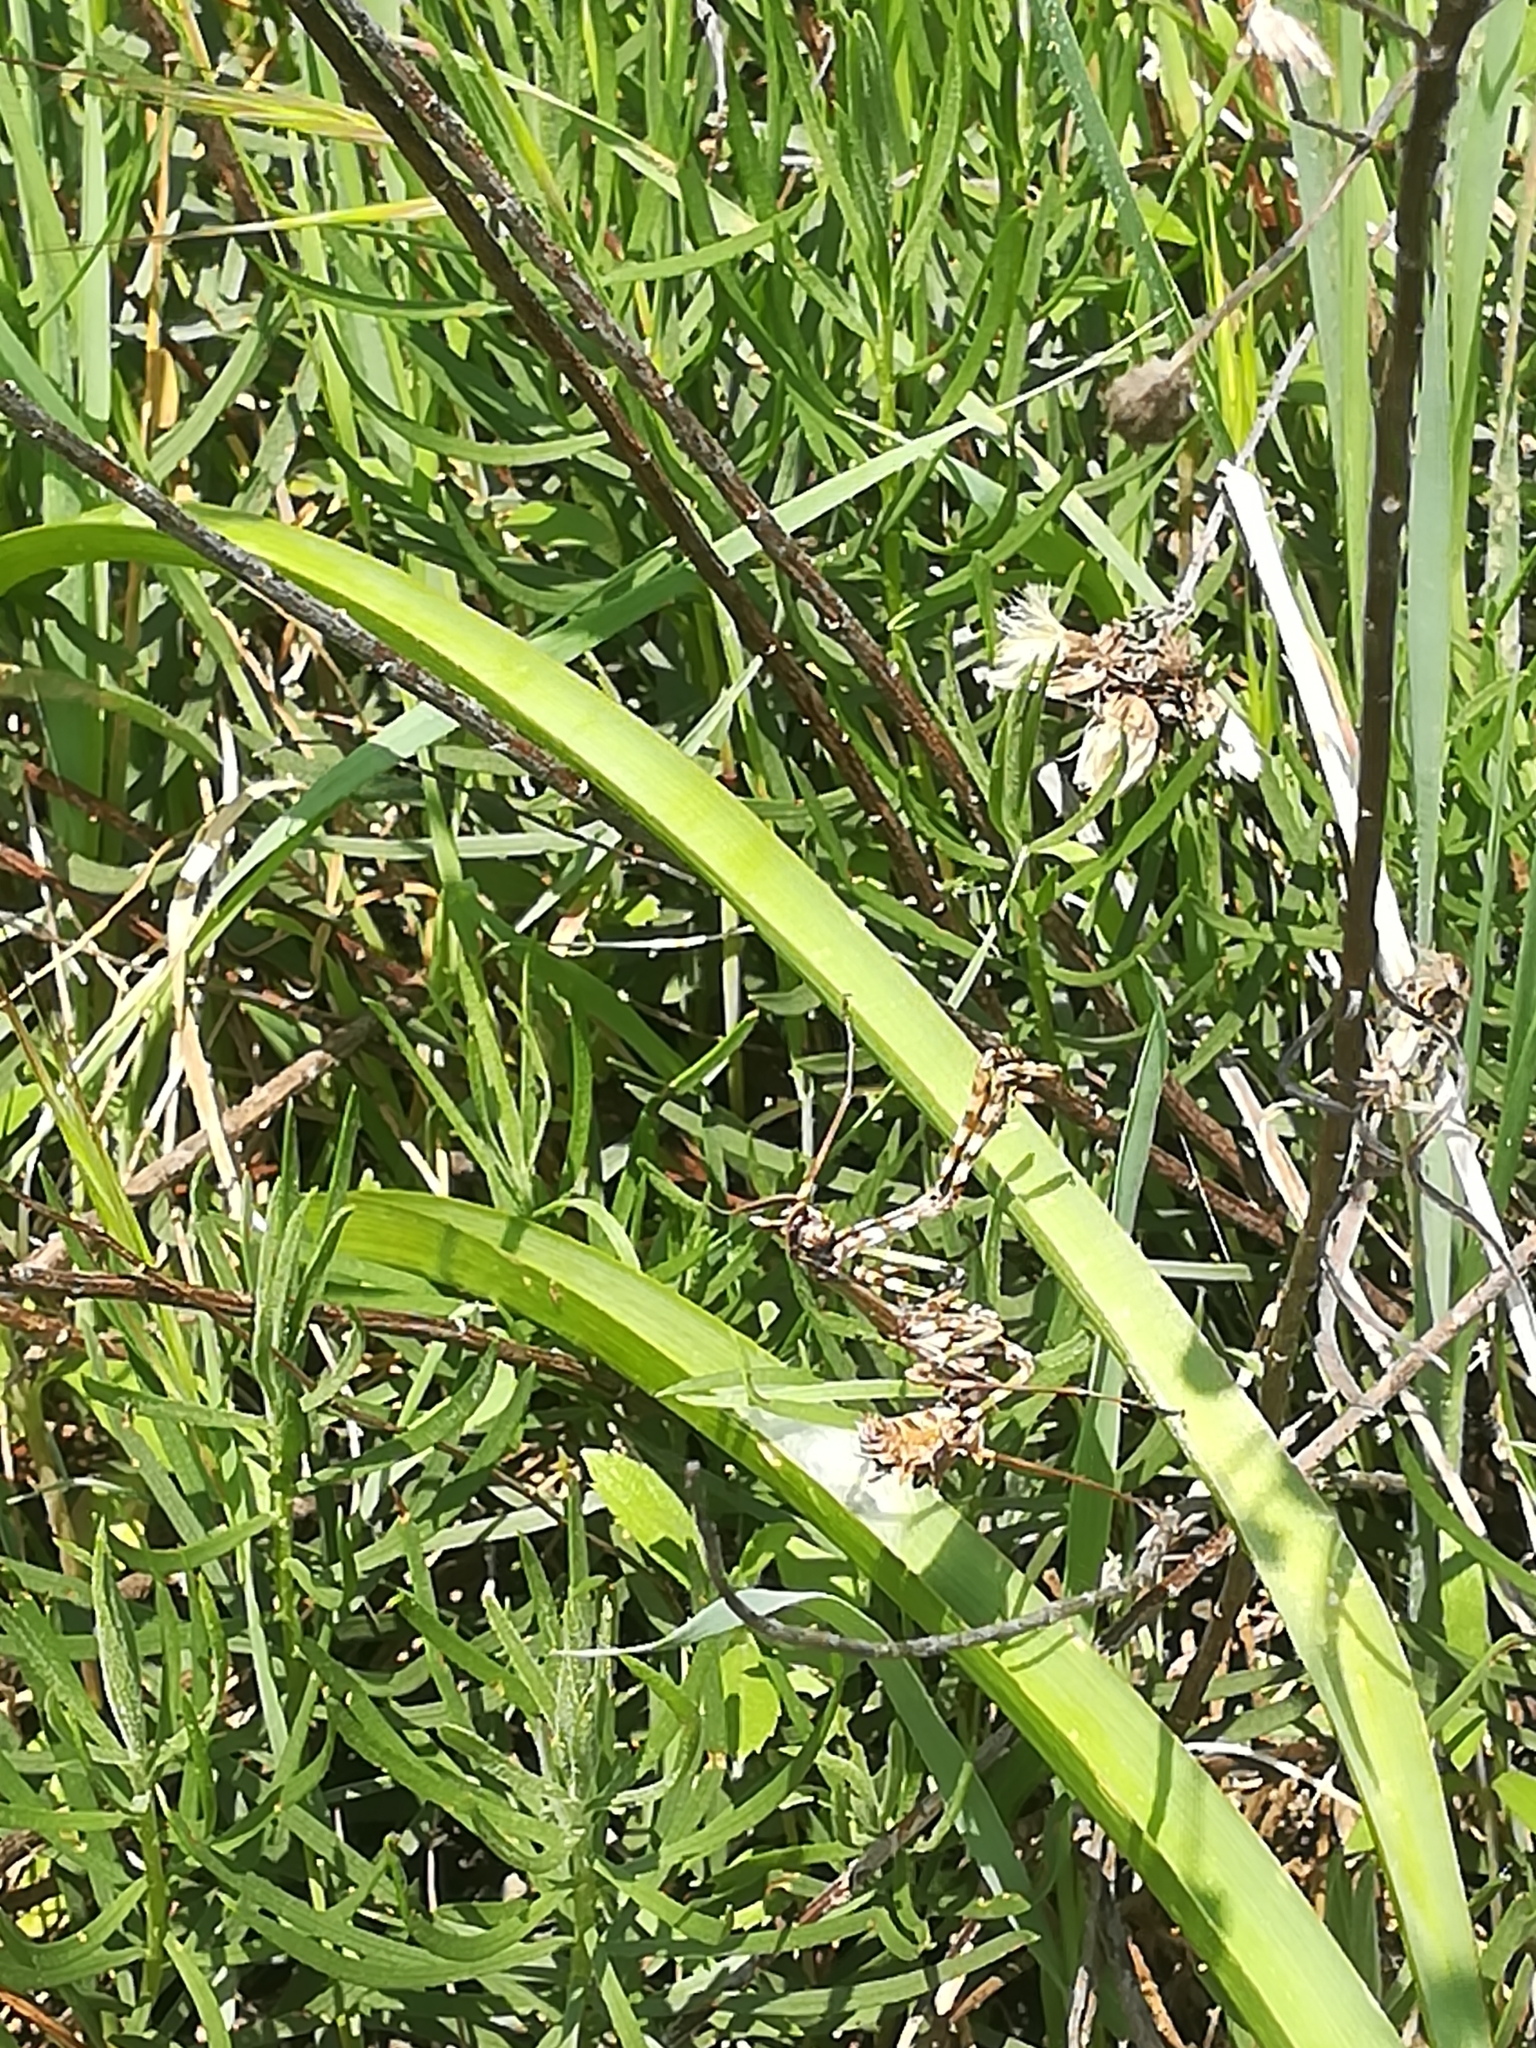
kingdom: Animalia
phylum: Arthropoda
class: Insecta
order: Mantodea
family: Empusidae
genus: Empusa
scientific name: Empusa pennata
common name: Conehead mantis
